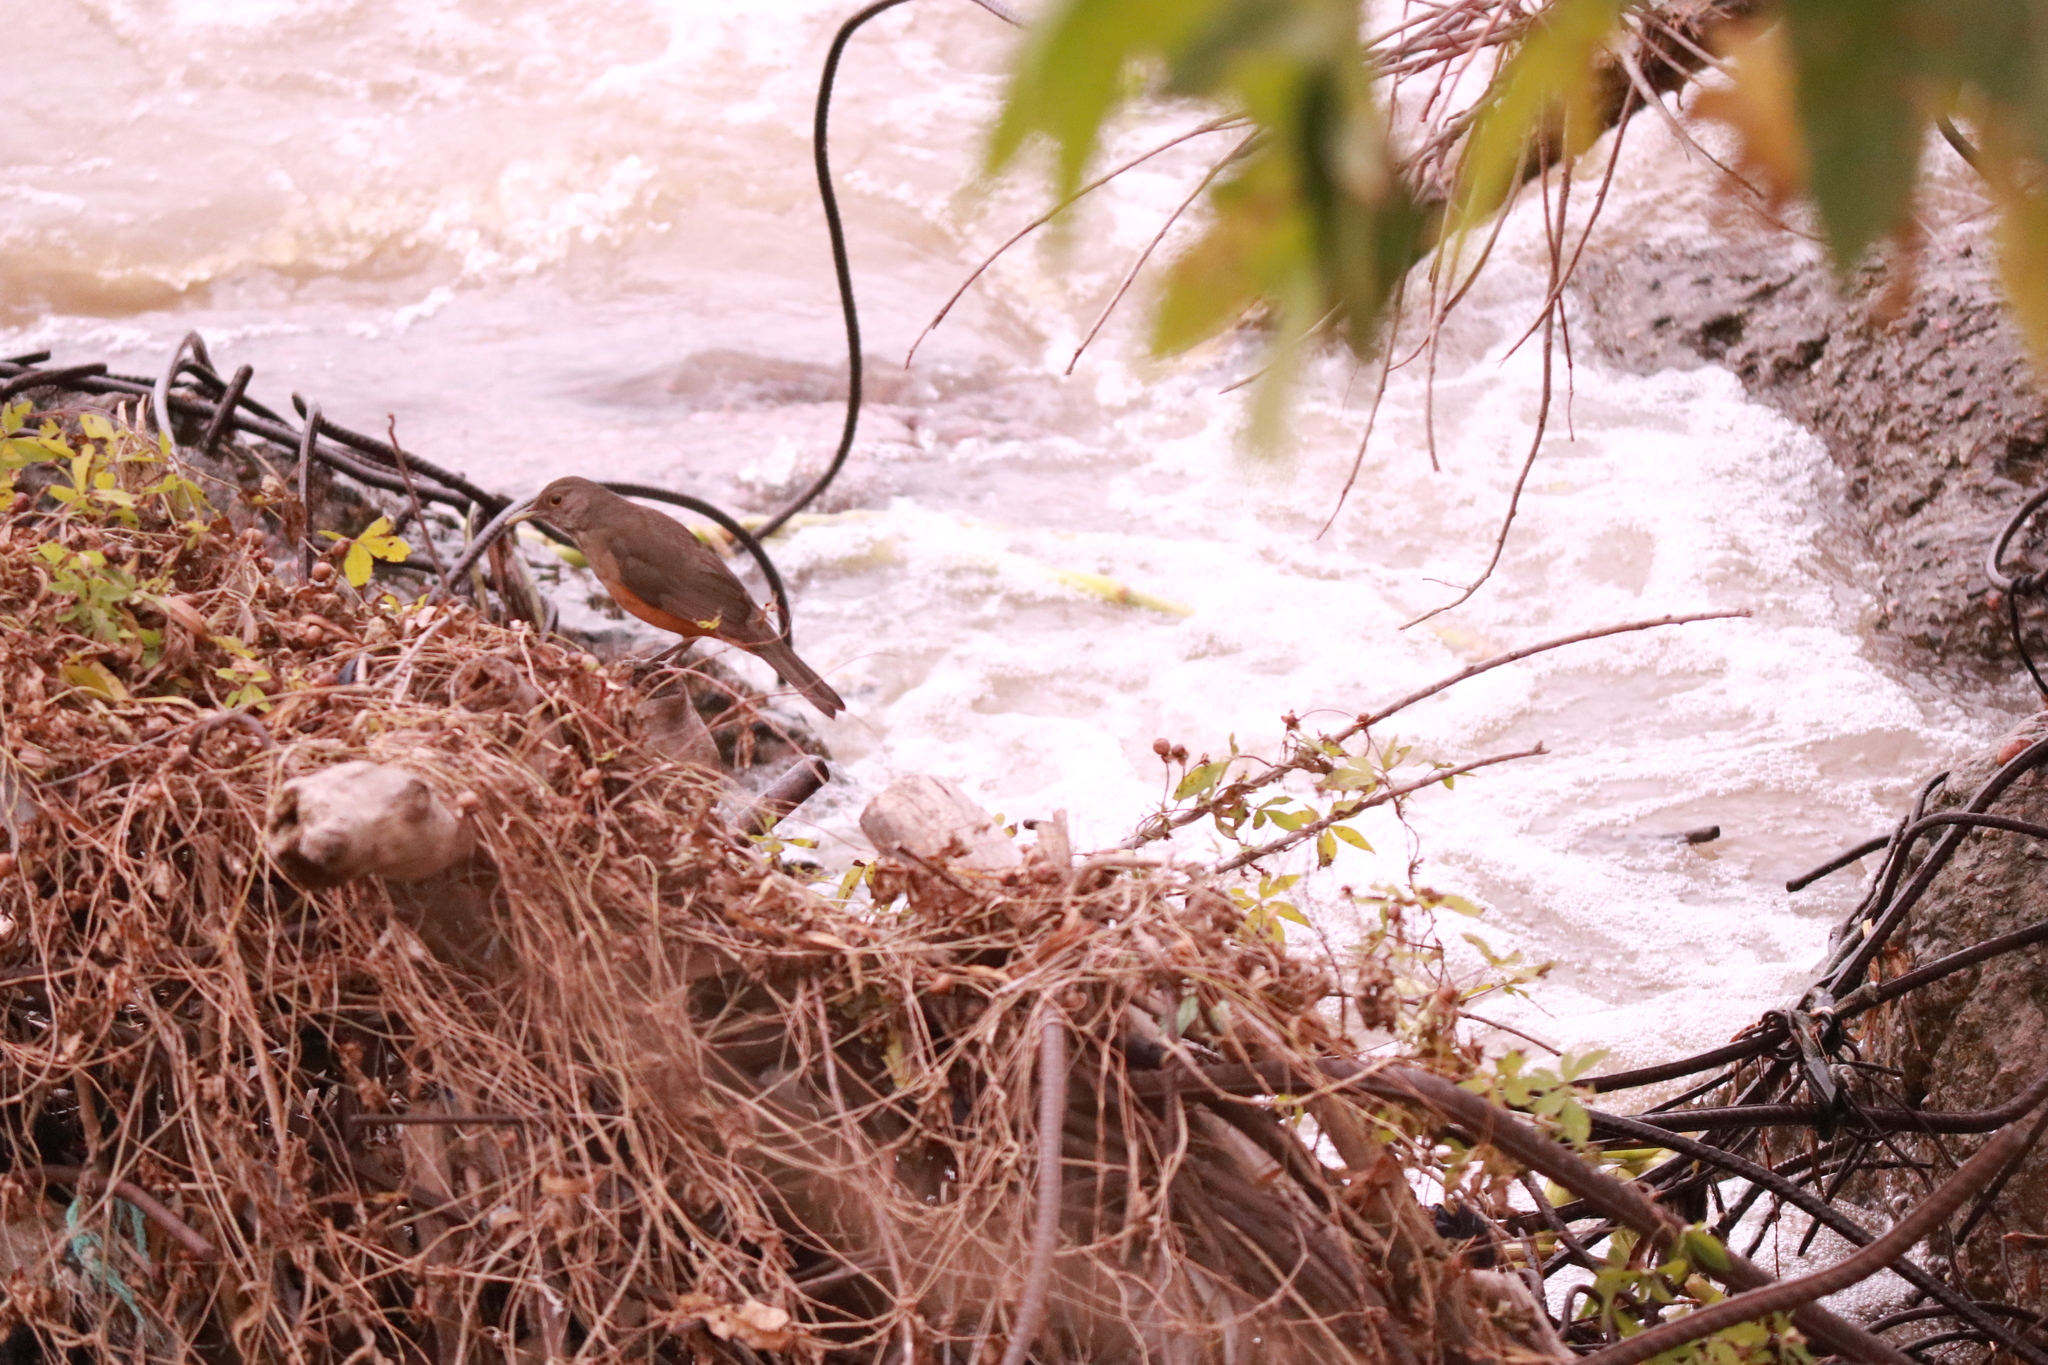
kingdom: Animalia
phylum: Chordata
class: Aves
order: Passeriformes
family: Turdidae
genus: Turdus
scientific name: Turdus rufiventris
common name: Rufous-bellied thrush
